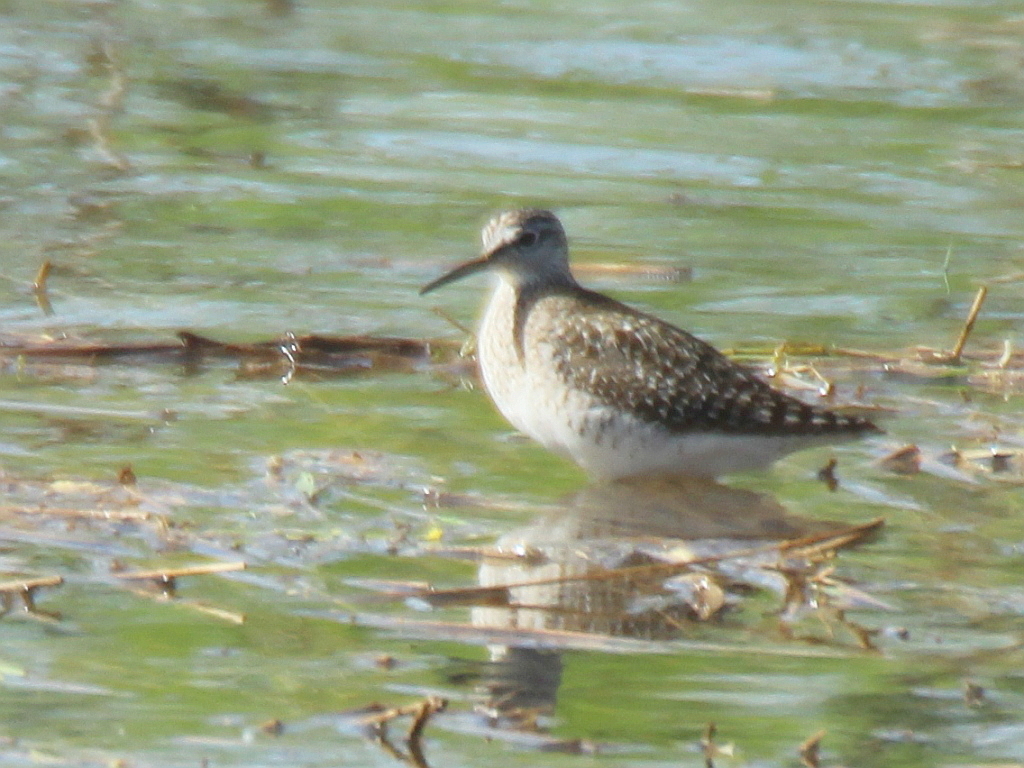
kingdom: Animalia
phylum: Chordata
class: Aves
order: Charadriiformes
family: Scolopacidae
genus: Tringa
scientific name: Tringa glareola
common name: Wood sandpiper
